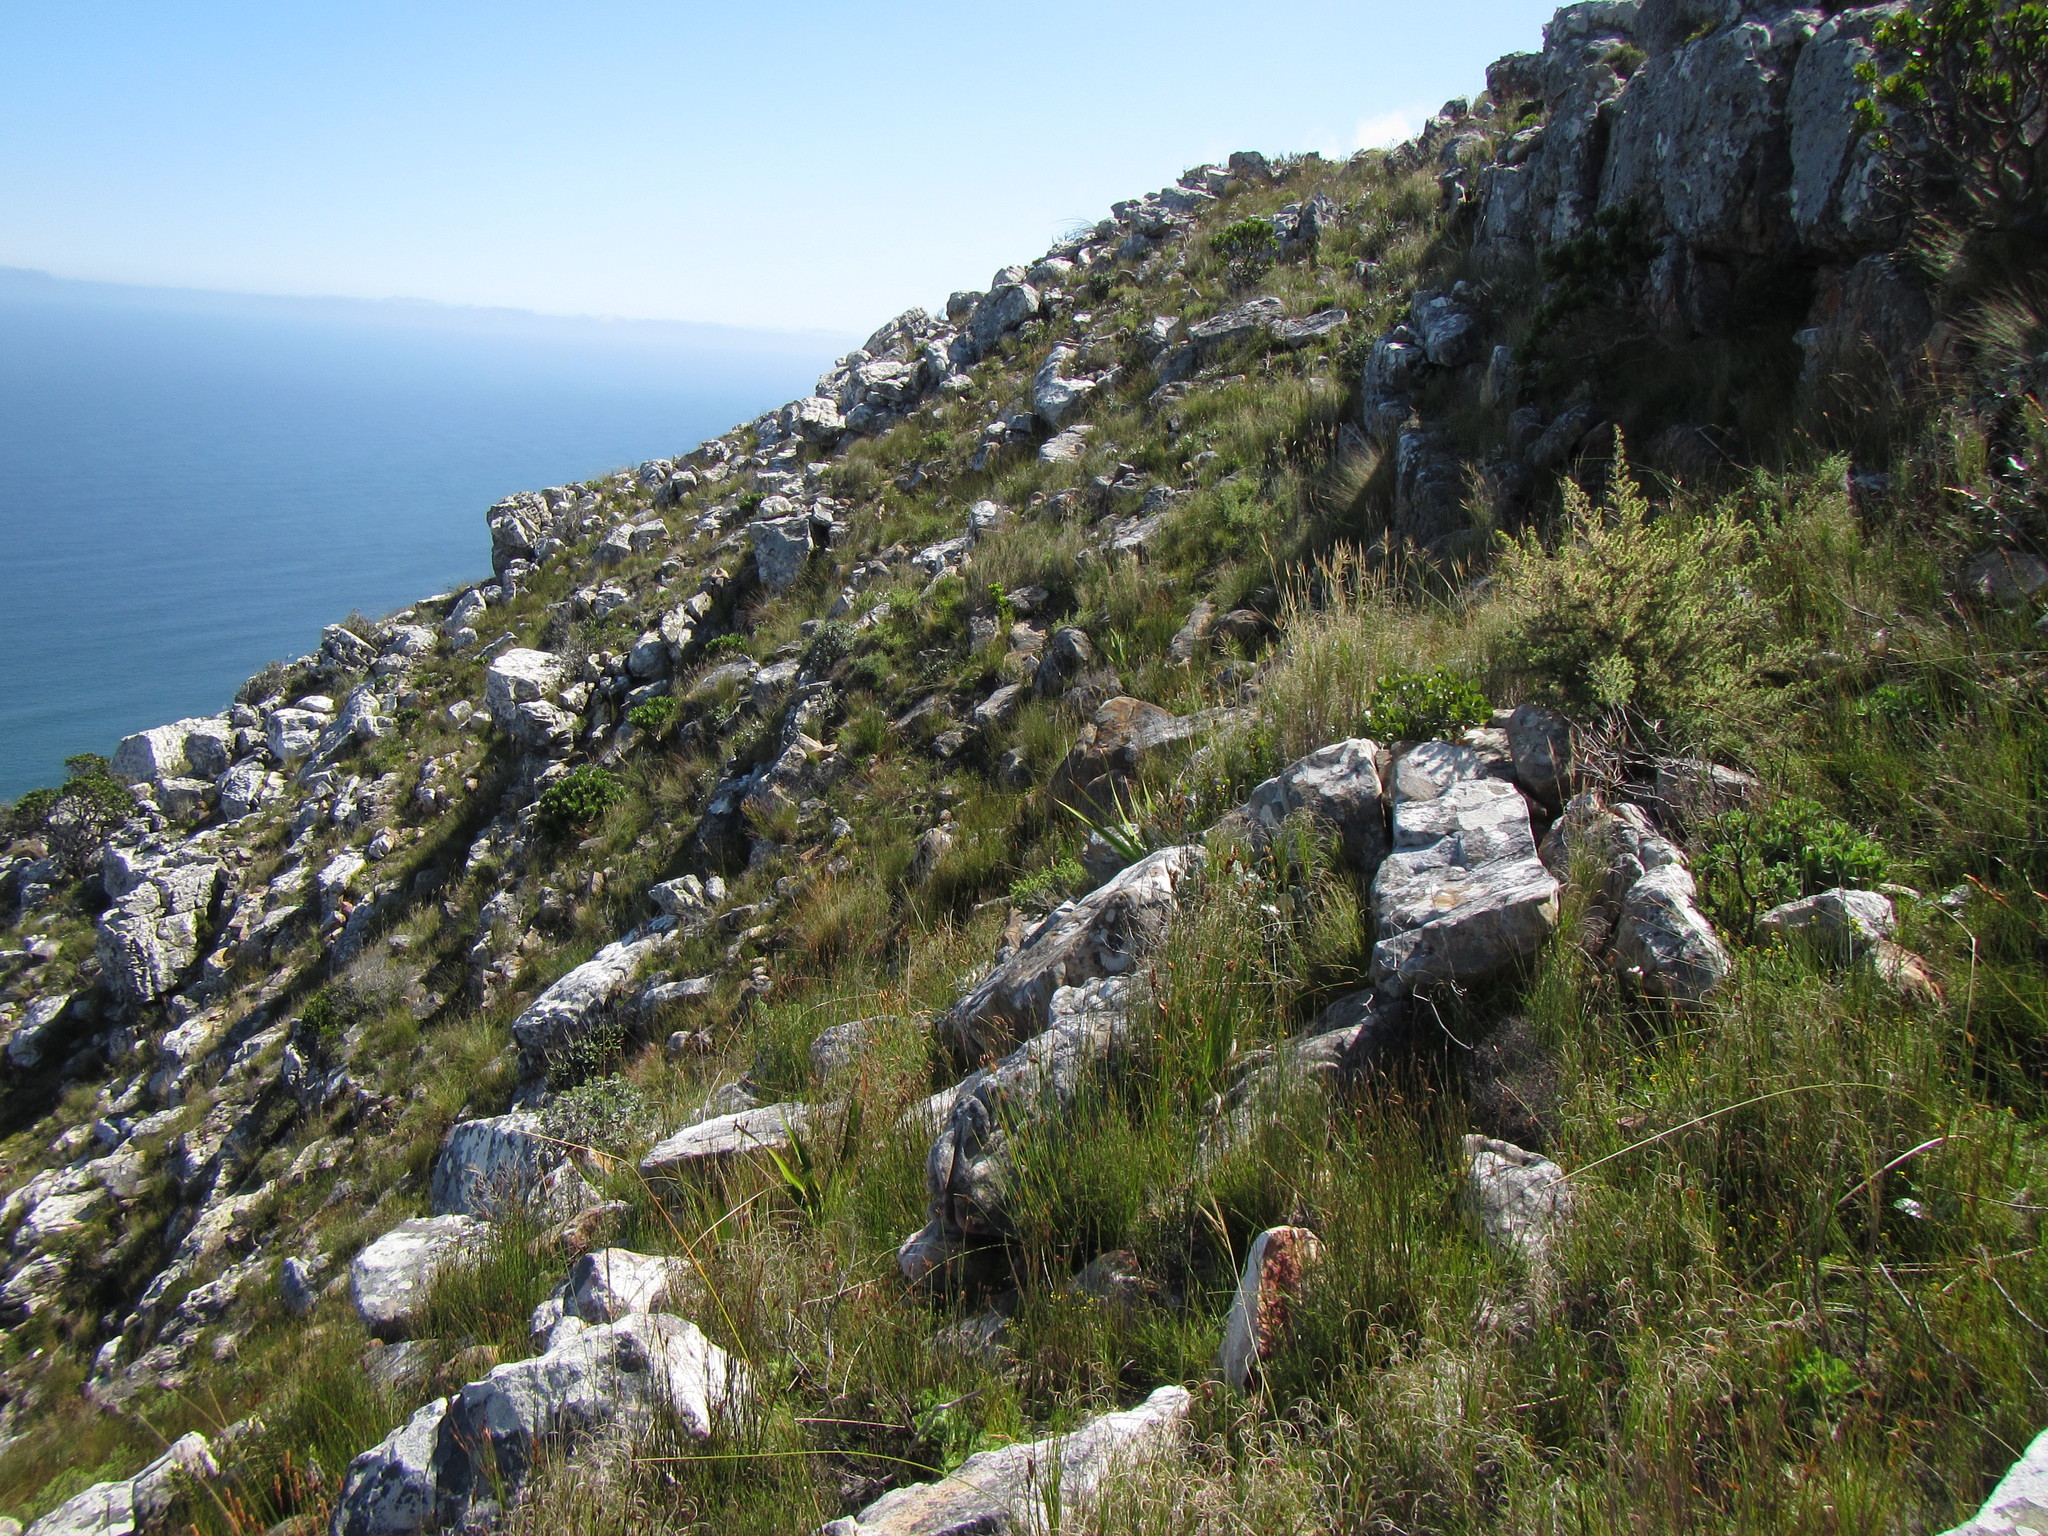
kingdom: Plantae
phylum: Tracheophyta
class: Liliopsida
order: Poales
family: Restionaceae
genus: Willdenowia
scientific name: Willdenowia glomerata
